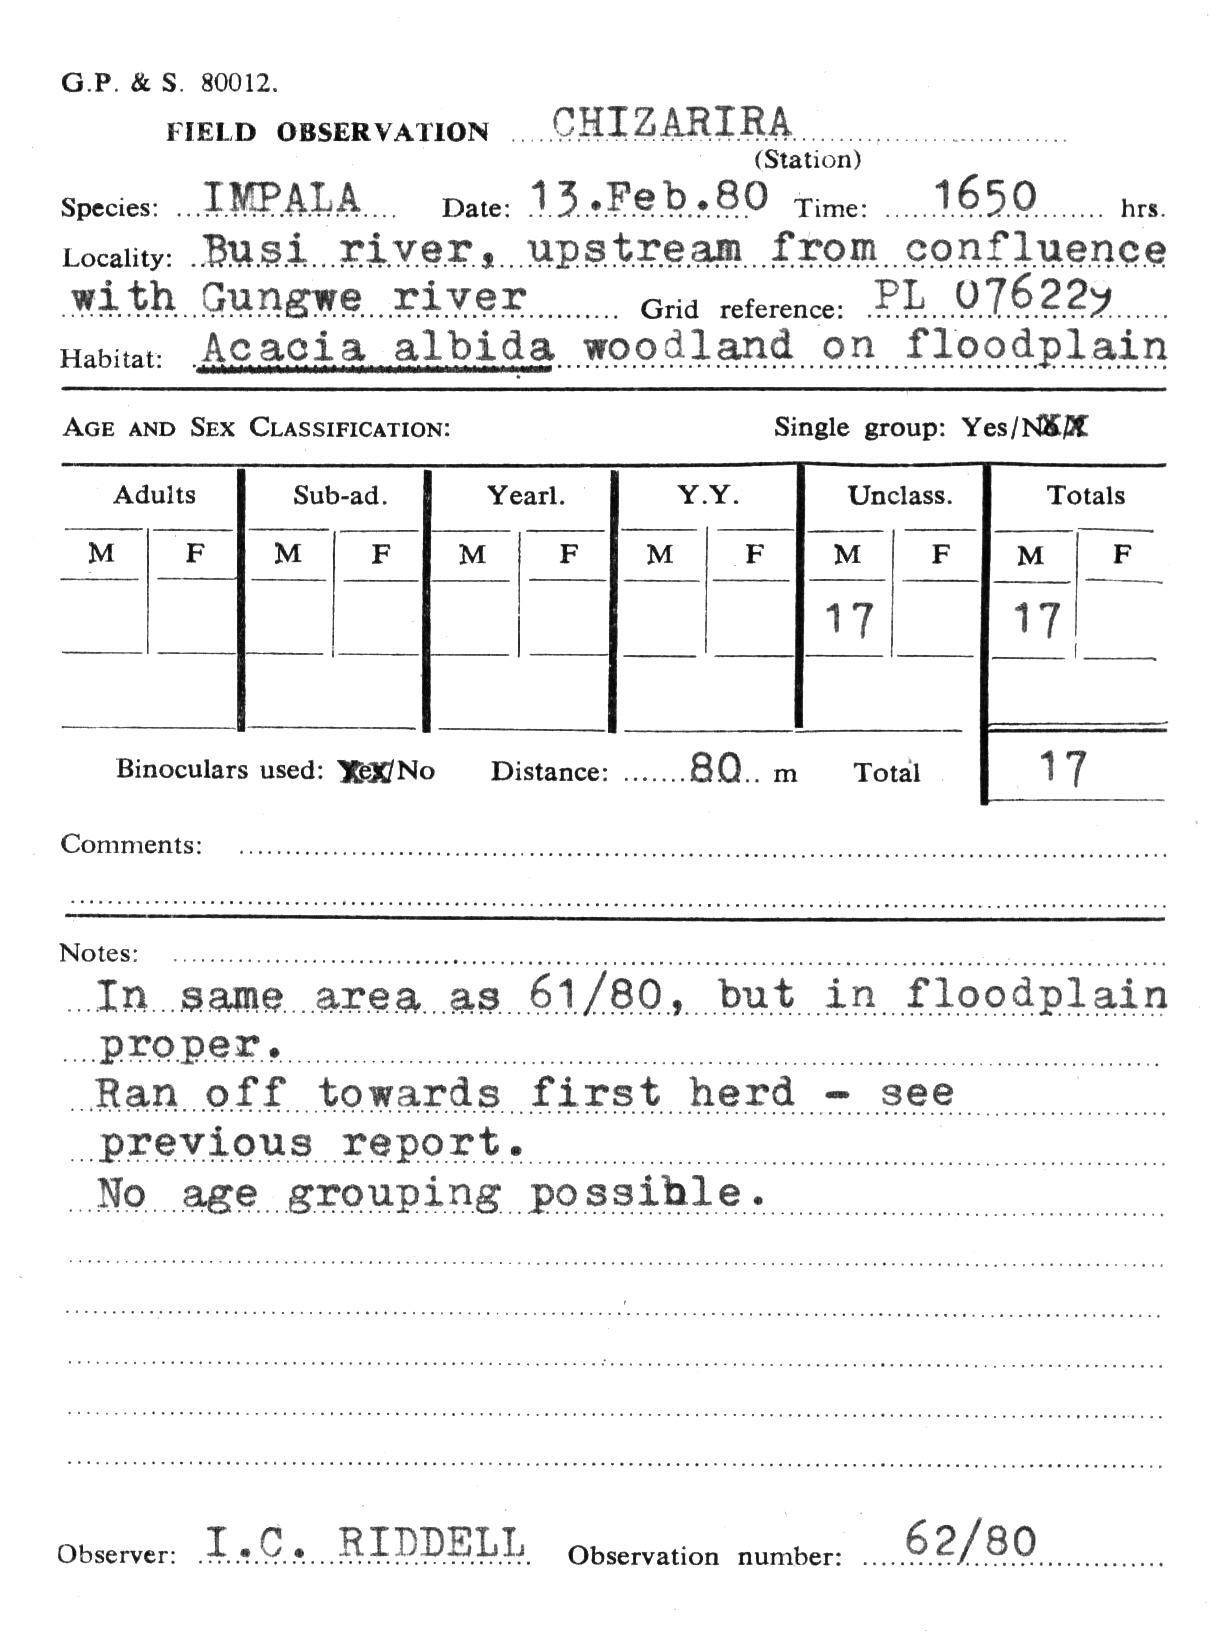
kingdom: Animalia
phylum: Chordata
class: Mammalia
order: Artiodactyla
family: Bovidae
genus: Aepyceros
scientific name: Aepyceros melampus
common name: Impala
